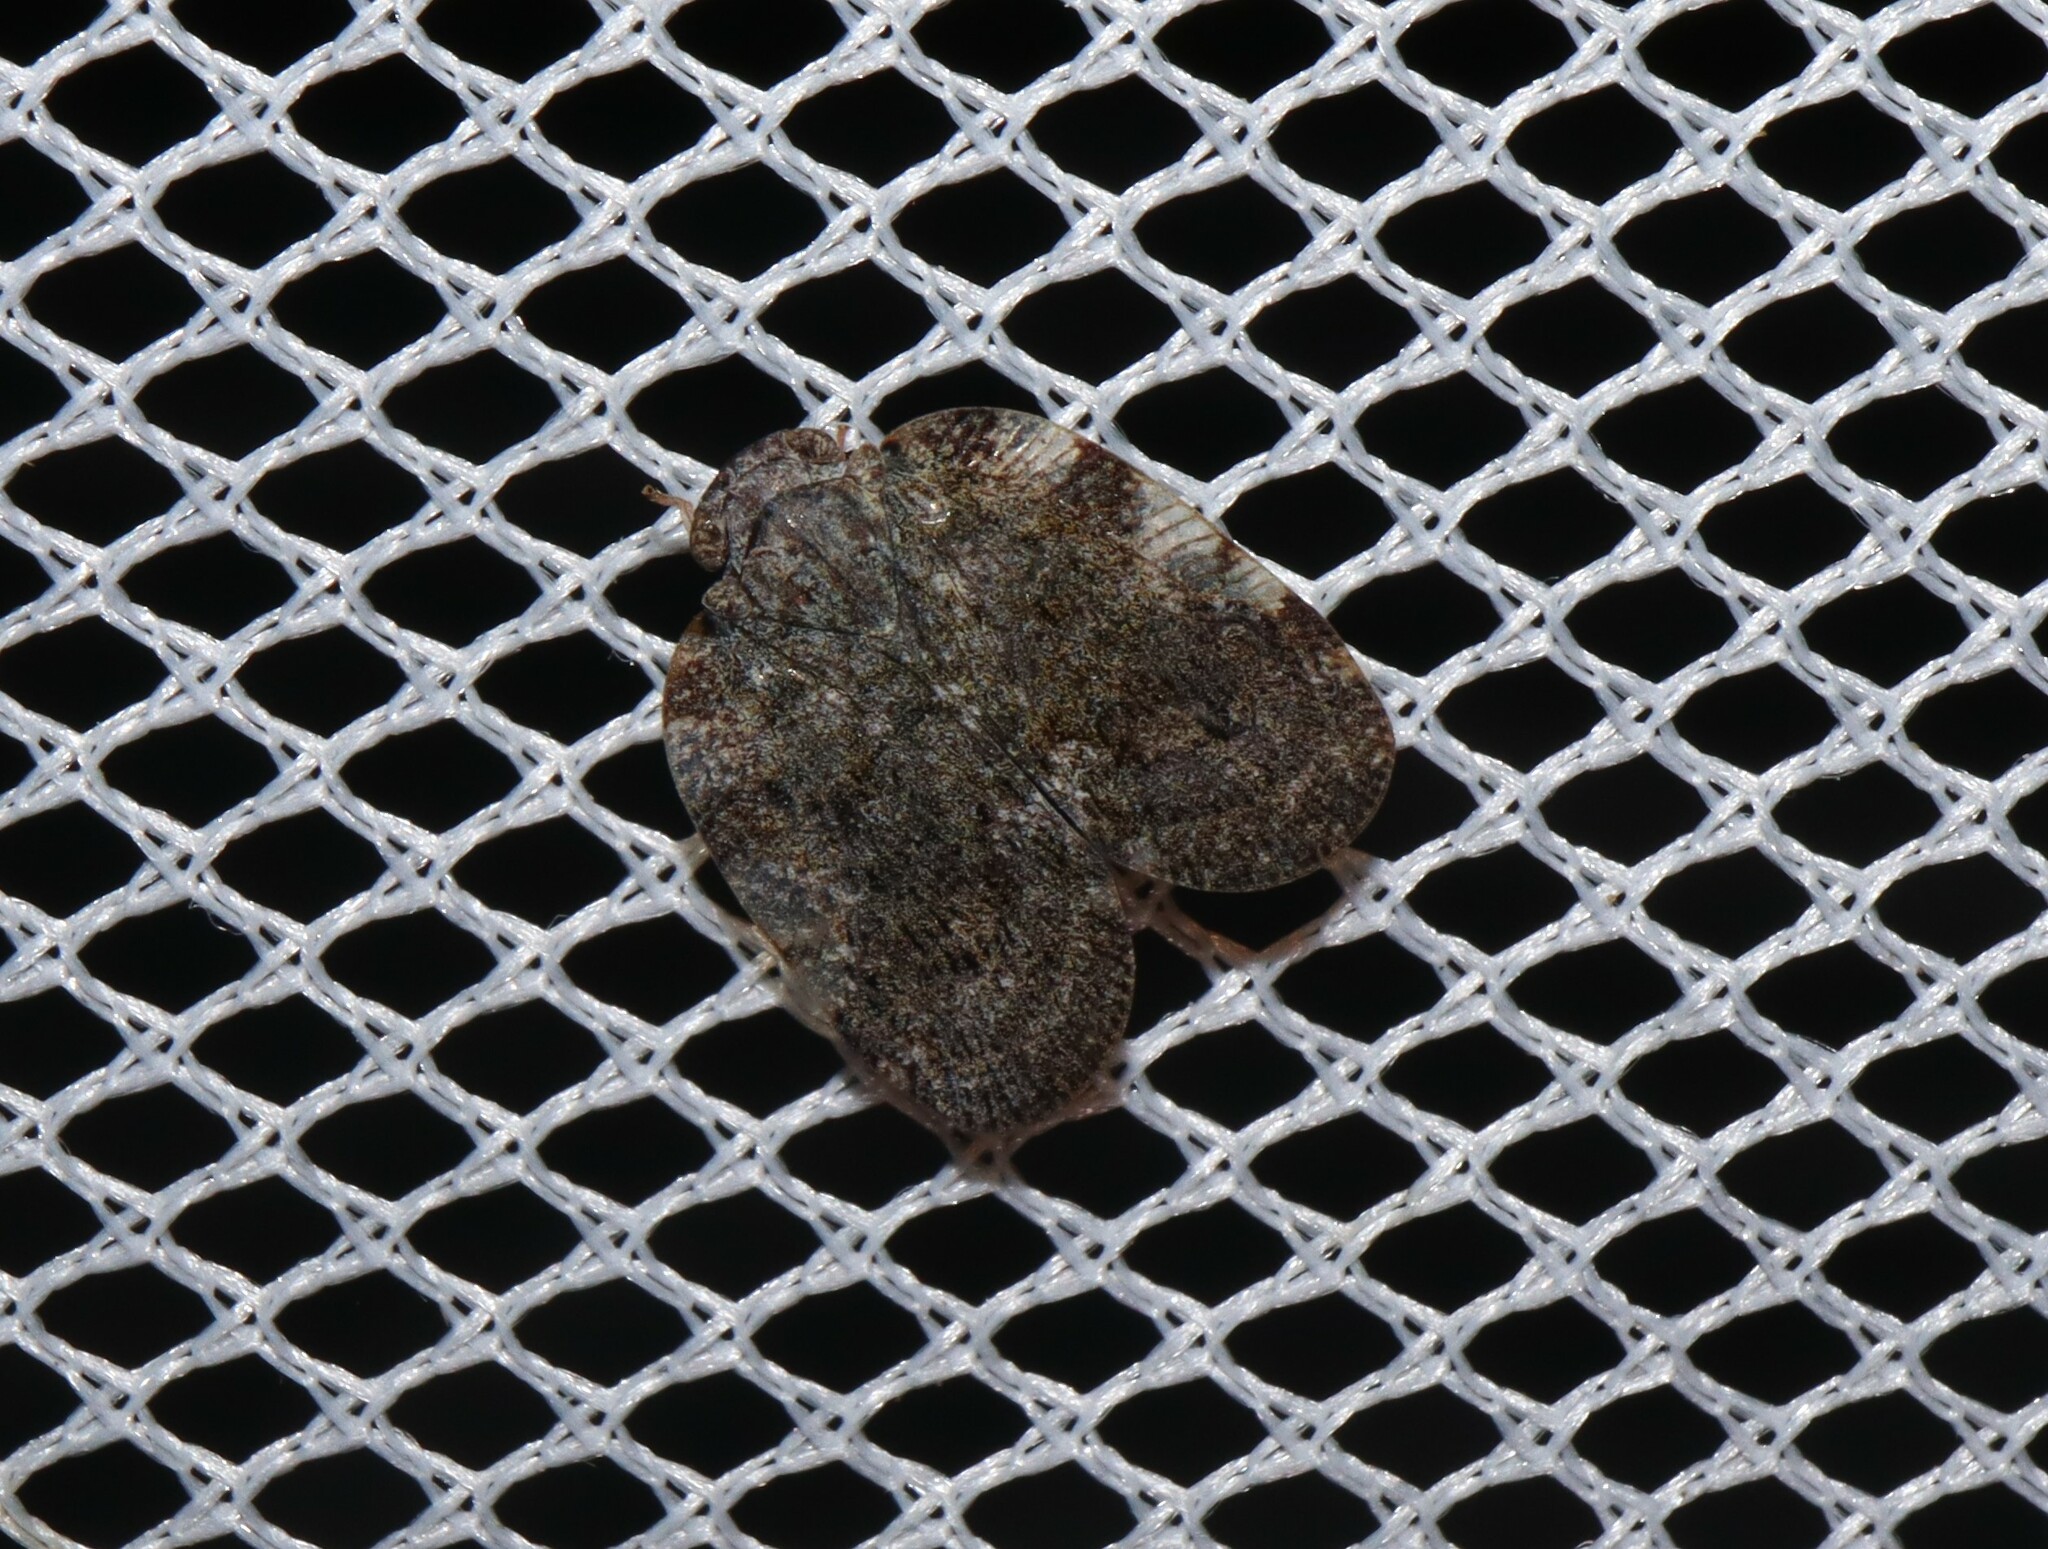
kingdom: Animalia
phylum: Arthropoda
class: Insecta
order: Hemiptera
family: Ricaniidae
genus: Aprivesa
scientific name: Aprivesa exuta
